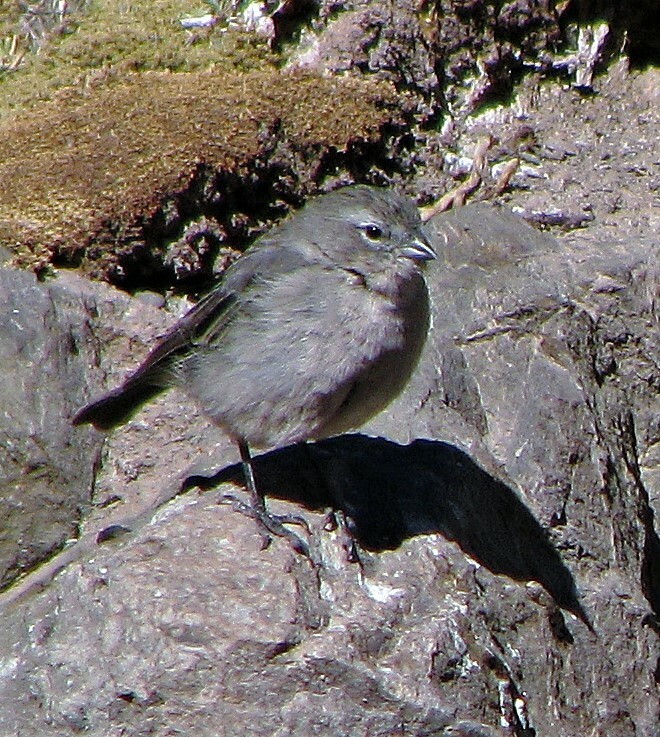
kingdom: Animalia
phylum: Chordata
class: Aves
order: Passeriformes
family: Thraupidae
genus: Geospizopsis
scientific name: Geospizopsis plebejus
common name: Ash-breasted sierra-finch
